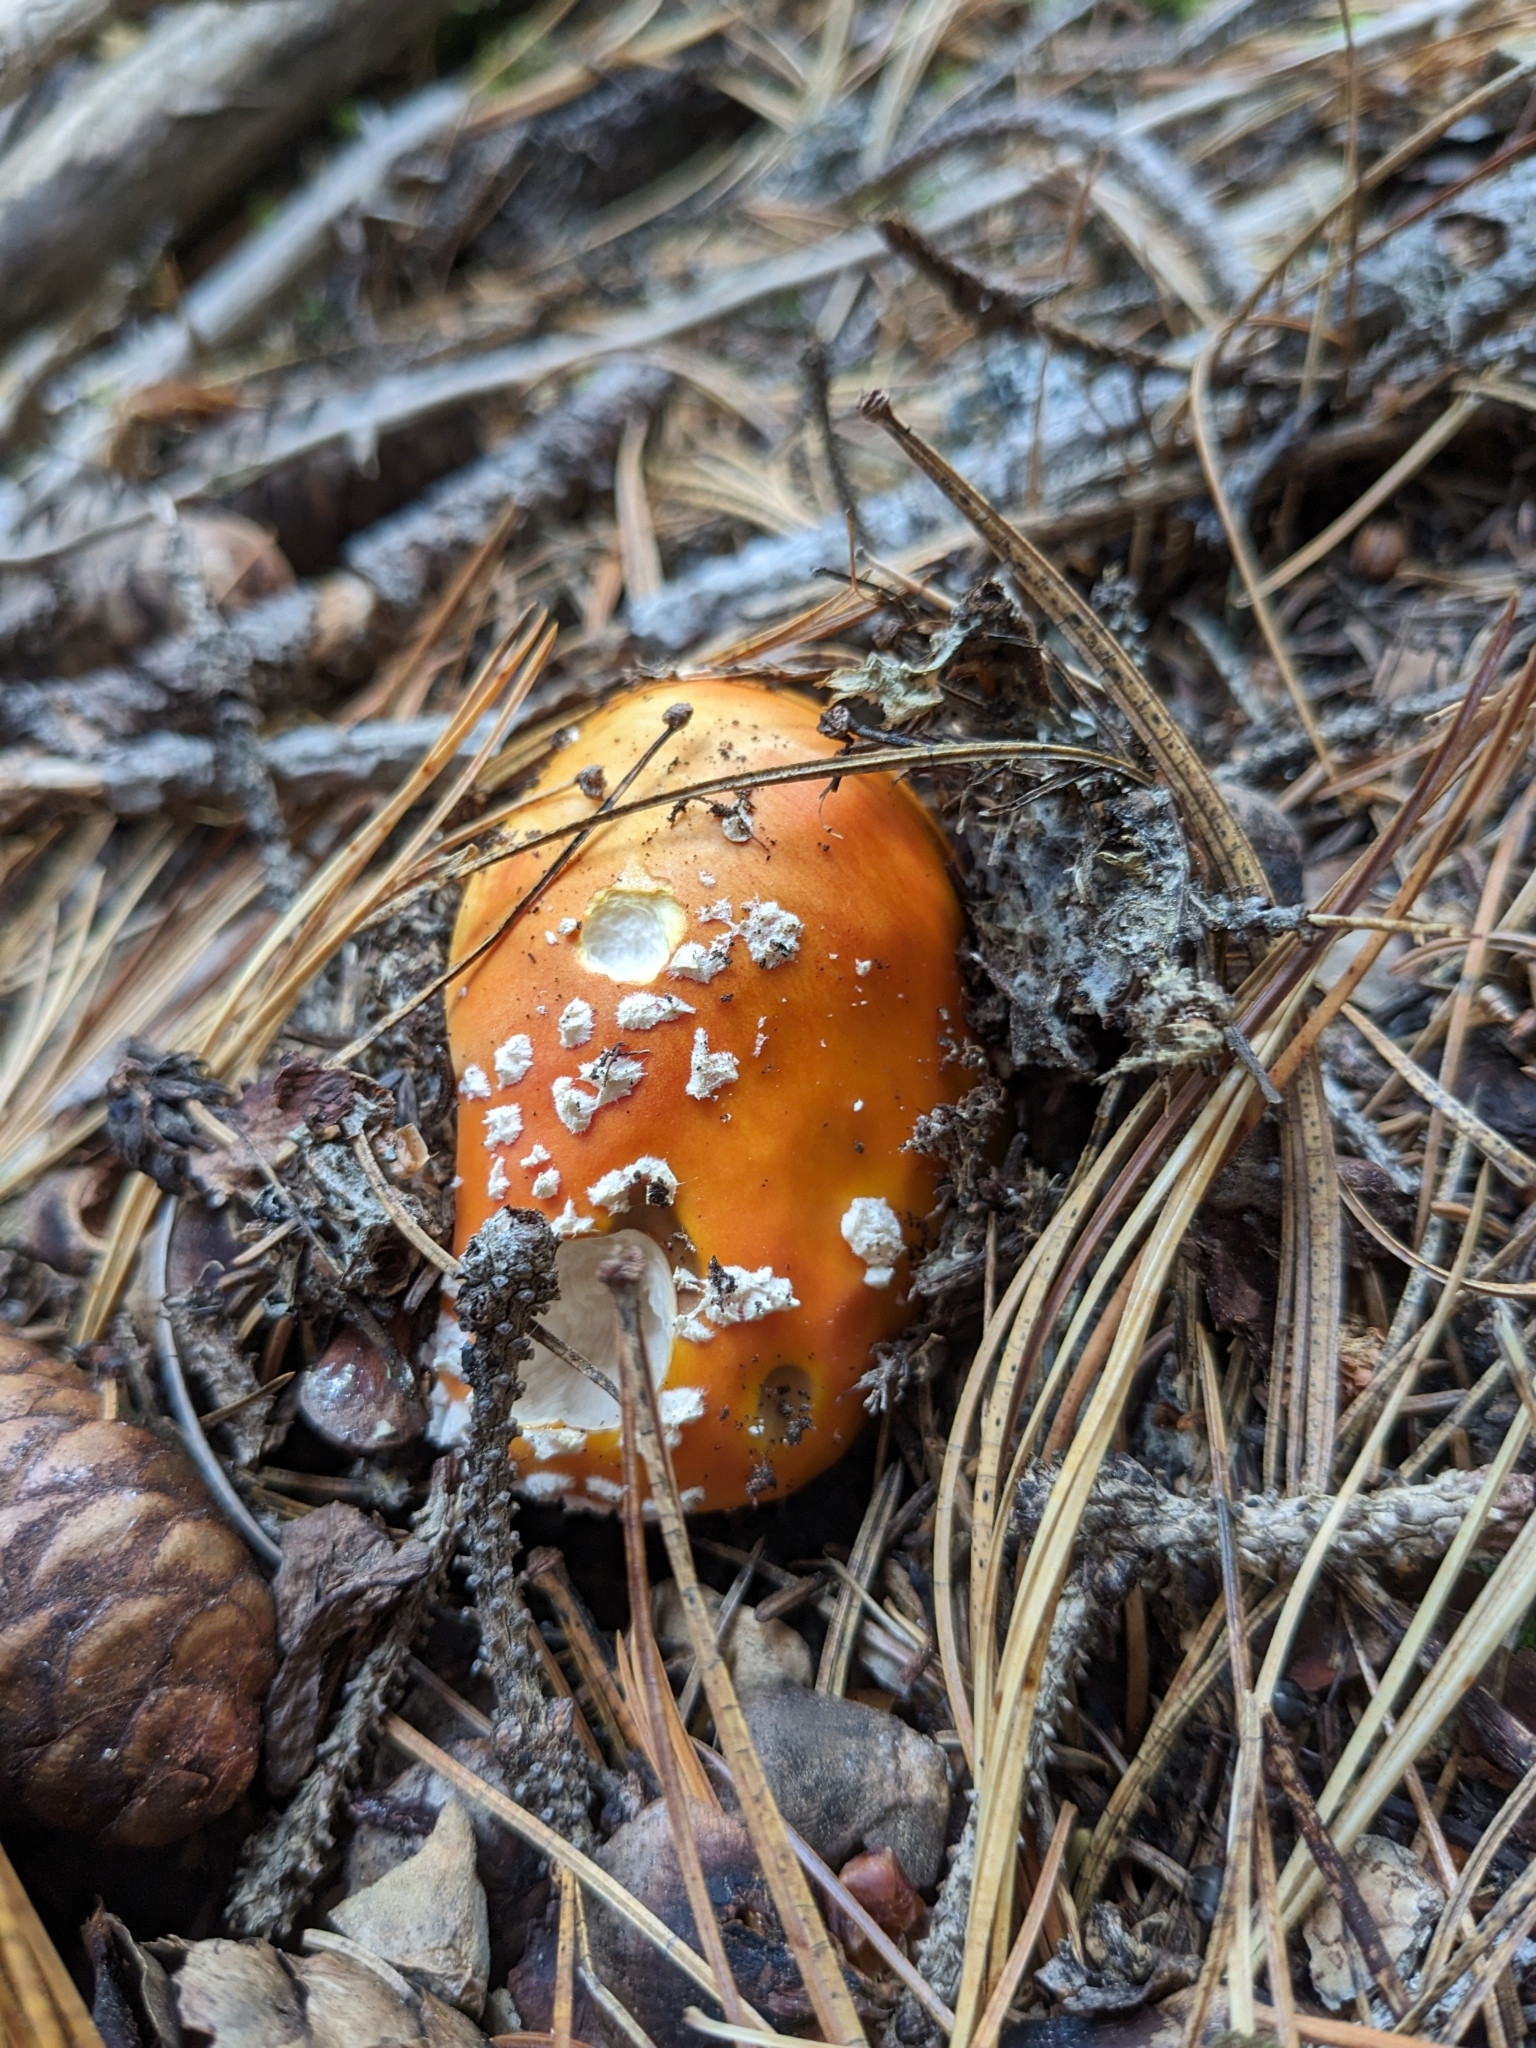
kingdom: Fungi
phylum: Basidiomycota
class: Agaricomycetes
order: Agaricales
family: Amanitaceae
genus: Amanita
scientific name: Amanita muscaria
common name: Fly agaric
